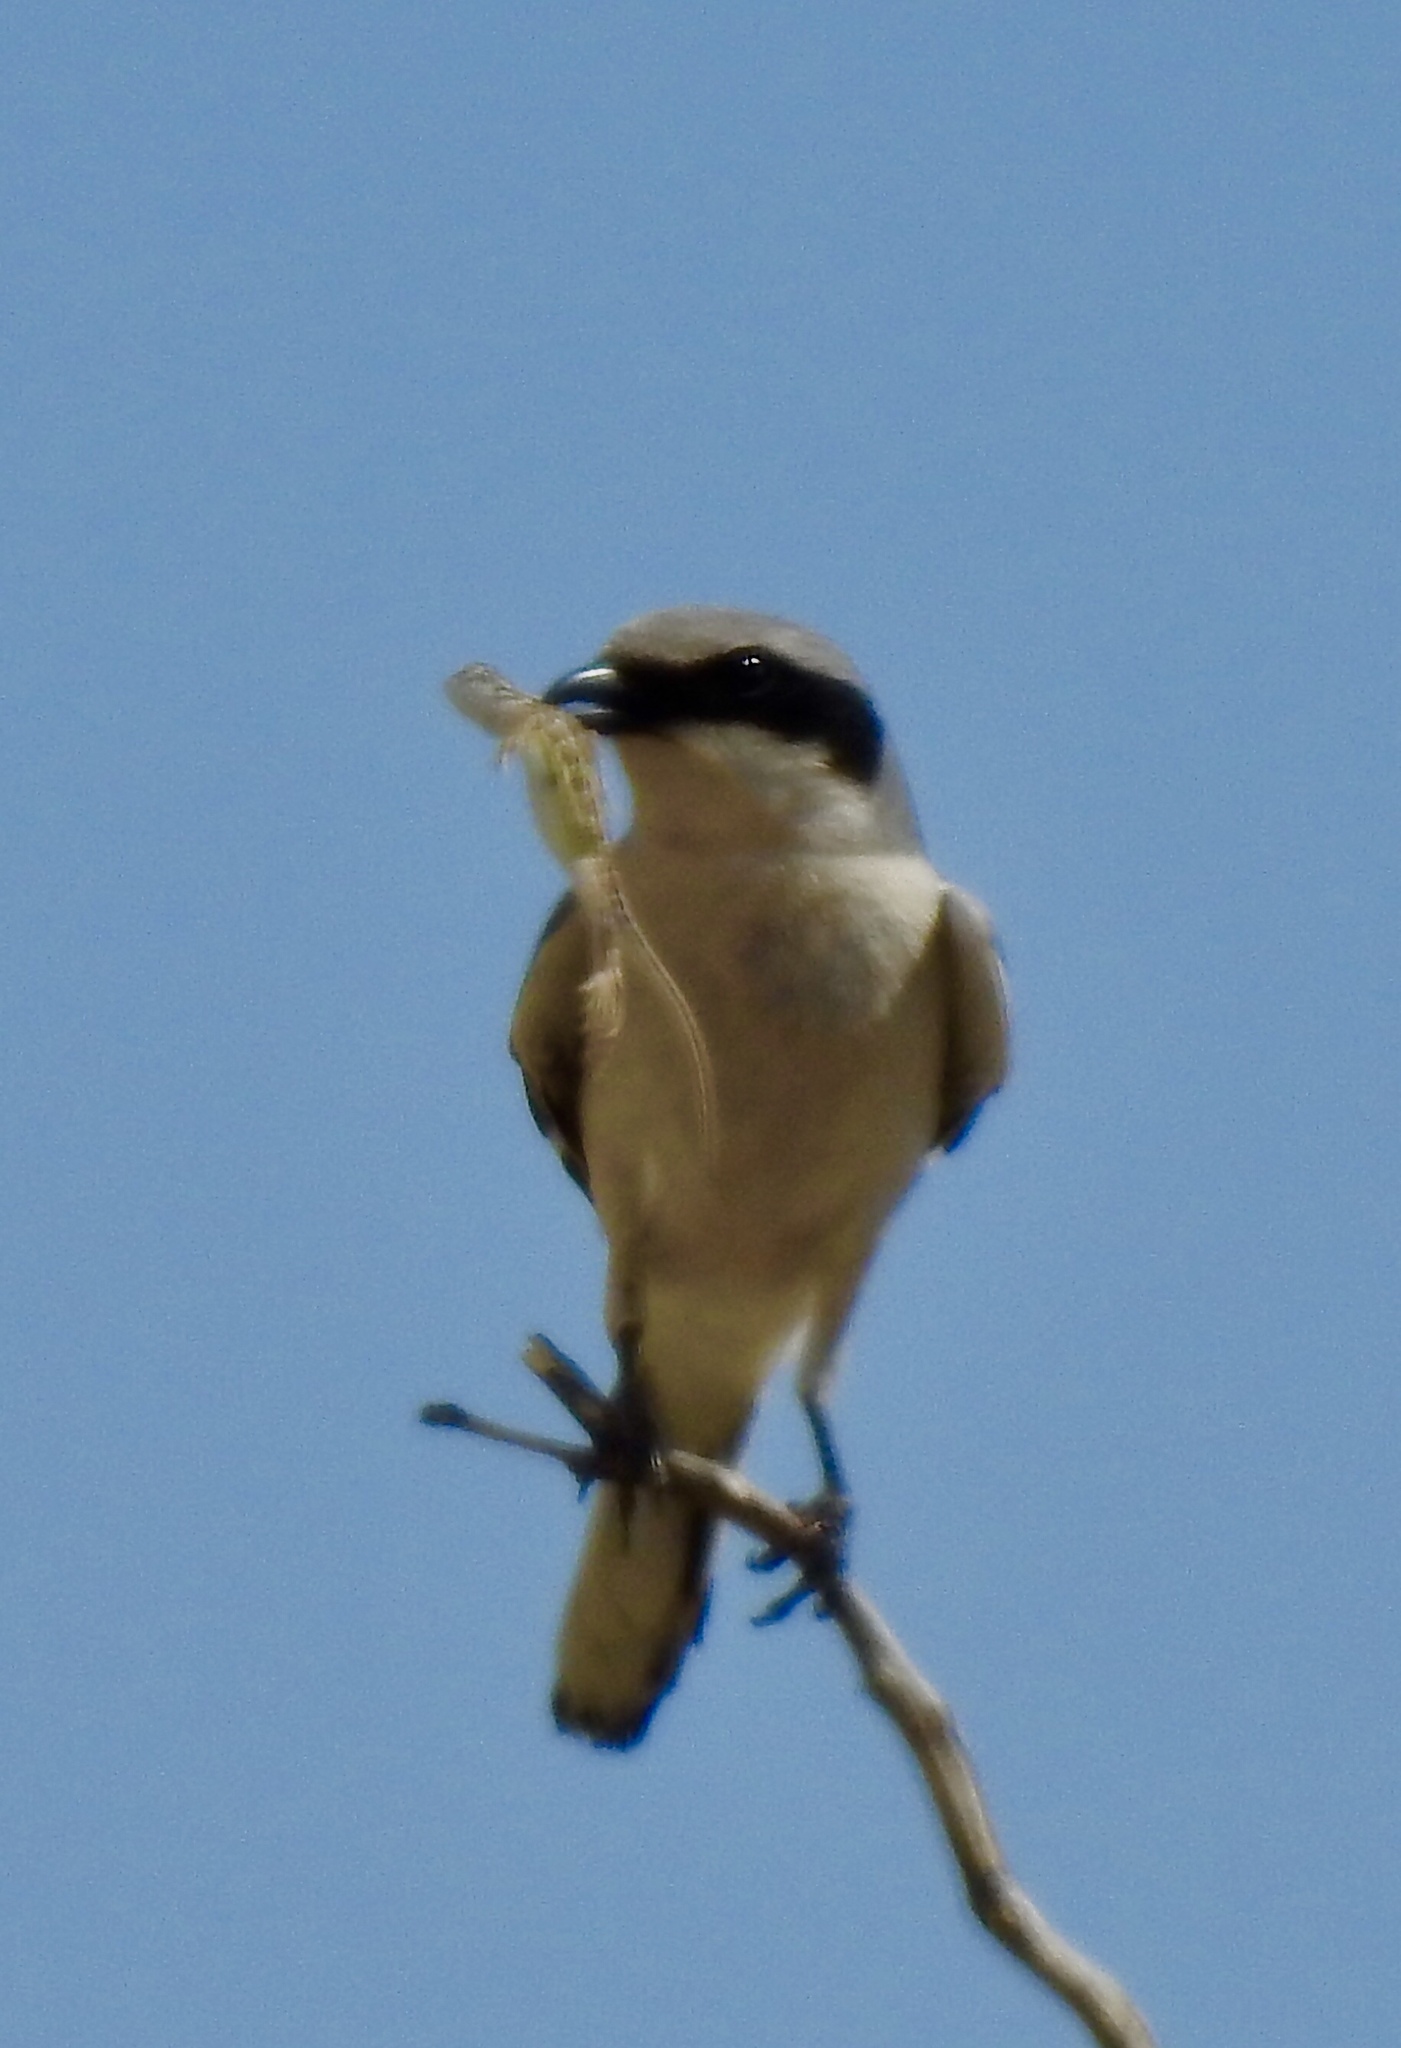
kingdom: Animalia
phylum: Chordata
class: Aves
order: Passeriformes
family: Laniidae
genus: Lanius
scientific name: Lanius ludovicianus
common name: Loggerhead shrike
